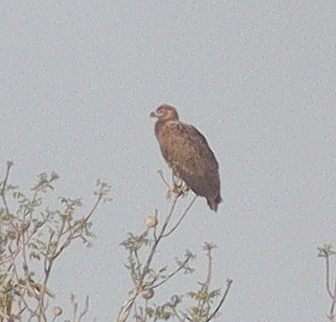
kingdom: Animalia
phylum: Chordata
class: Aves
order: Accipitriformes
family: Accipitridae
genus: Gypohierax
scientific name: Gypohierax angolensis
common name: Palm-nut vulture
